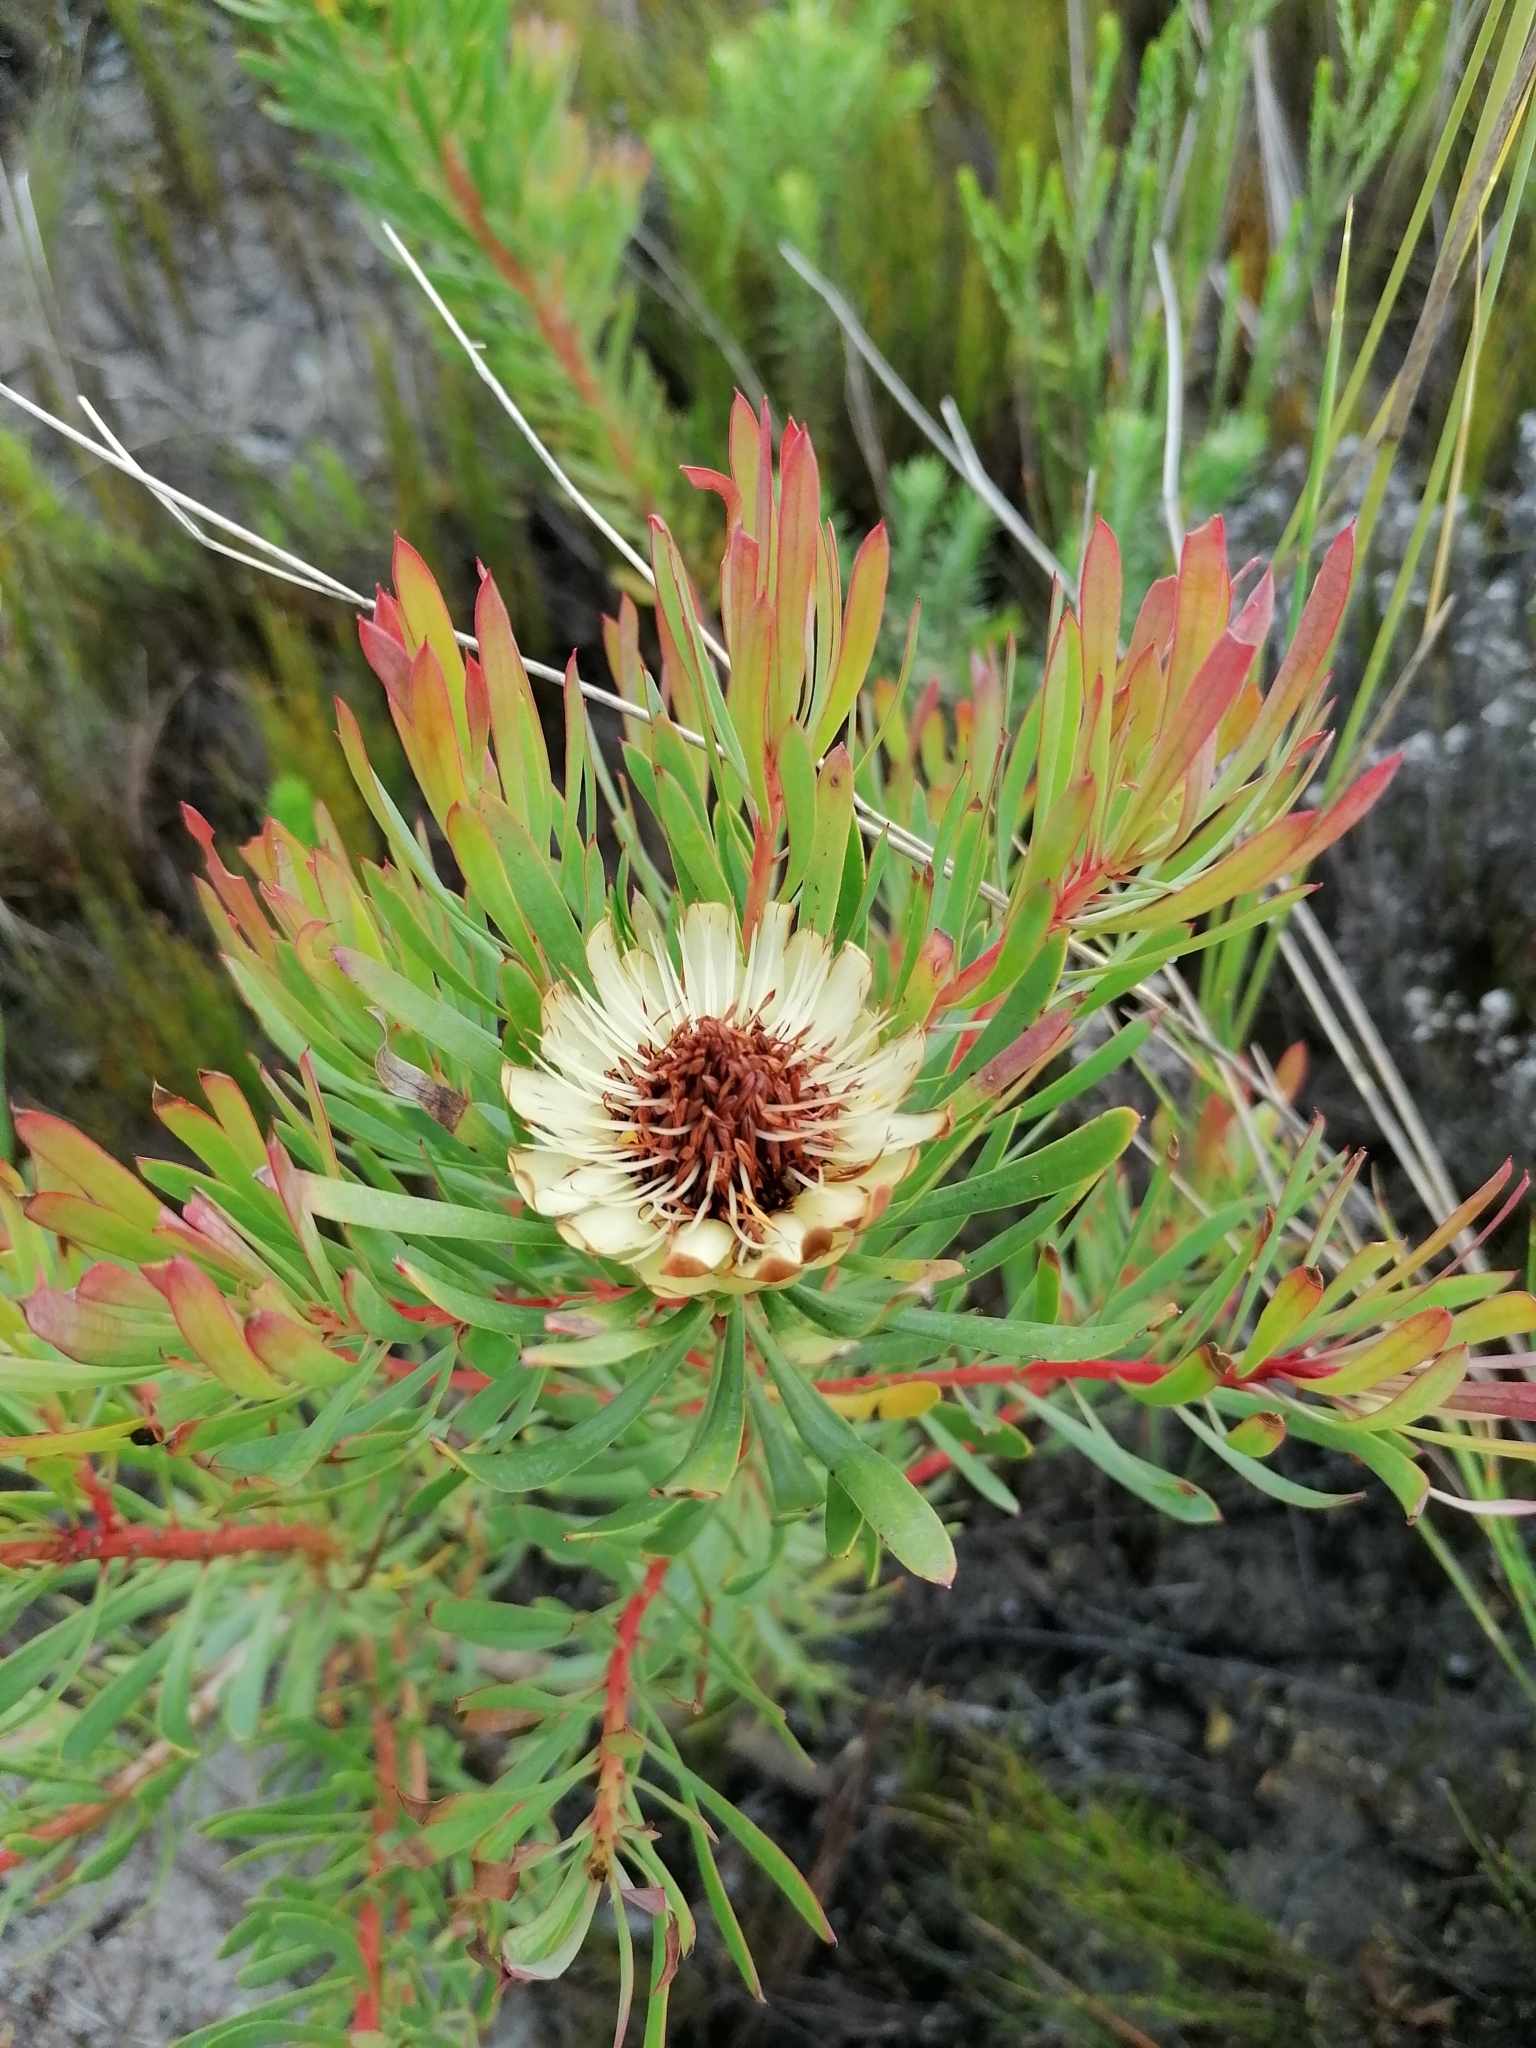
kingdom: Plantae
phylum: Tracheophyta
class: Magnoliopsida
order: Proteales
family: Proteaceae
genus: Protea
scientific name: Protea scolymocephala
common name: Thistle sugarbush
